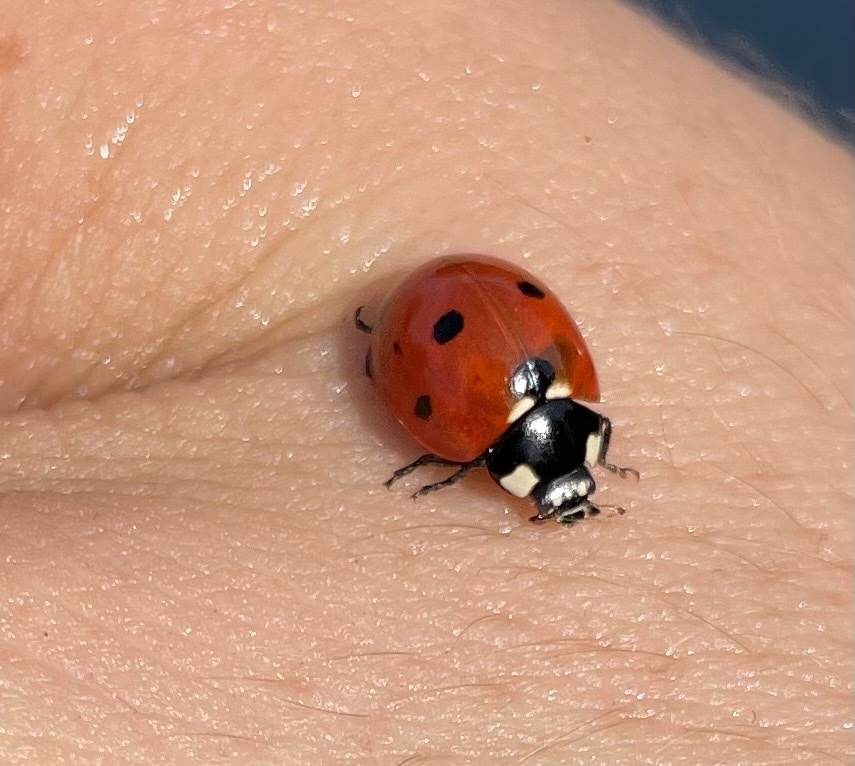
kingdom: Animalia
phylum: Arthropoda
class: Insecta
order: Coleoptera
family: Coccinellidae
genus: Coccinella
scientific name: Coccinella septempunctata
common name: Sevenspotted lady beetle
